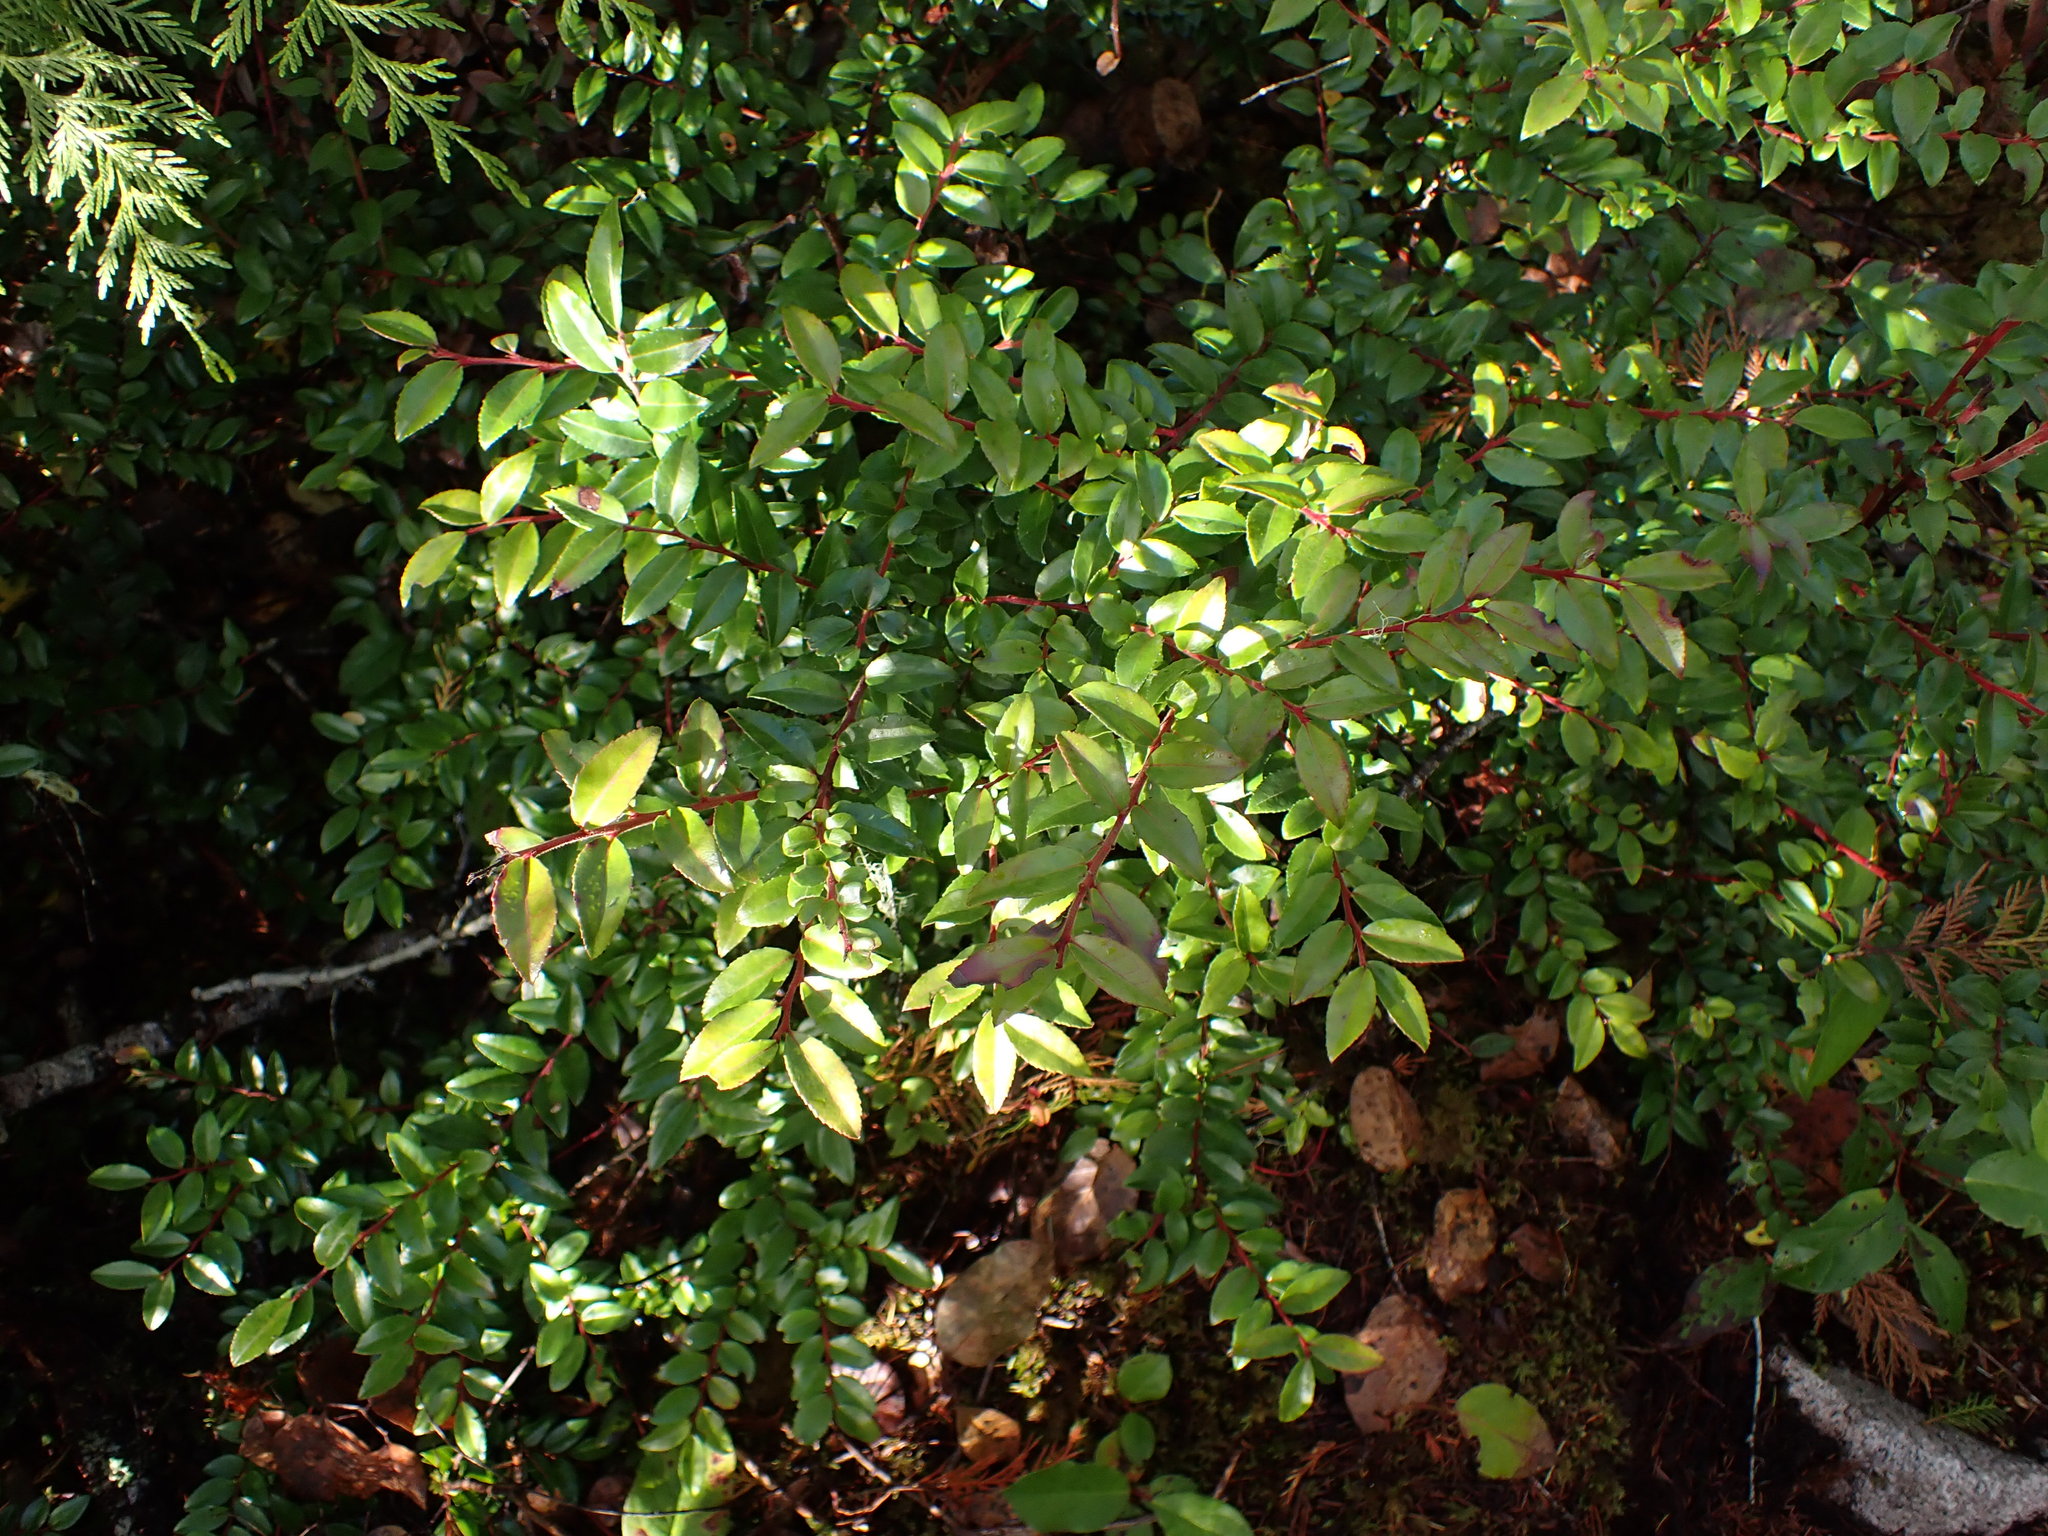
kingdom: Plantae
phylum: Tracheophyta
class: Magnoliopsida
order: Ericales
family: Ericaceae
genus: Vaccinium
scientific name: Vaccinium ovatum
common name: California-huckleberry
